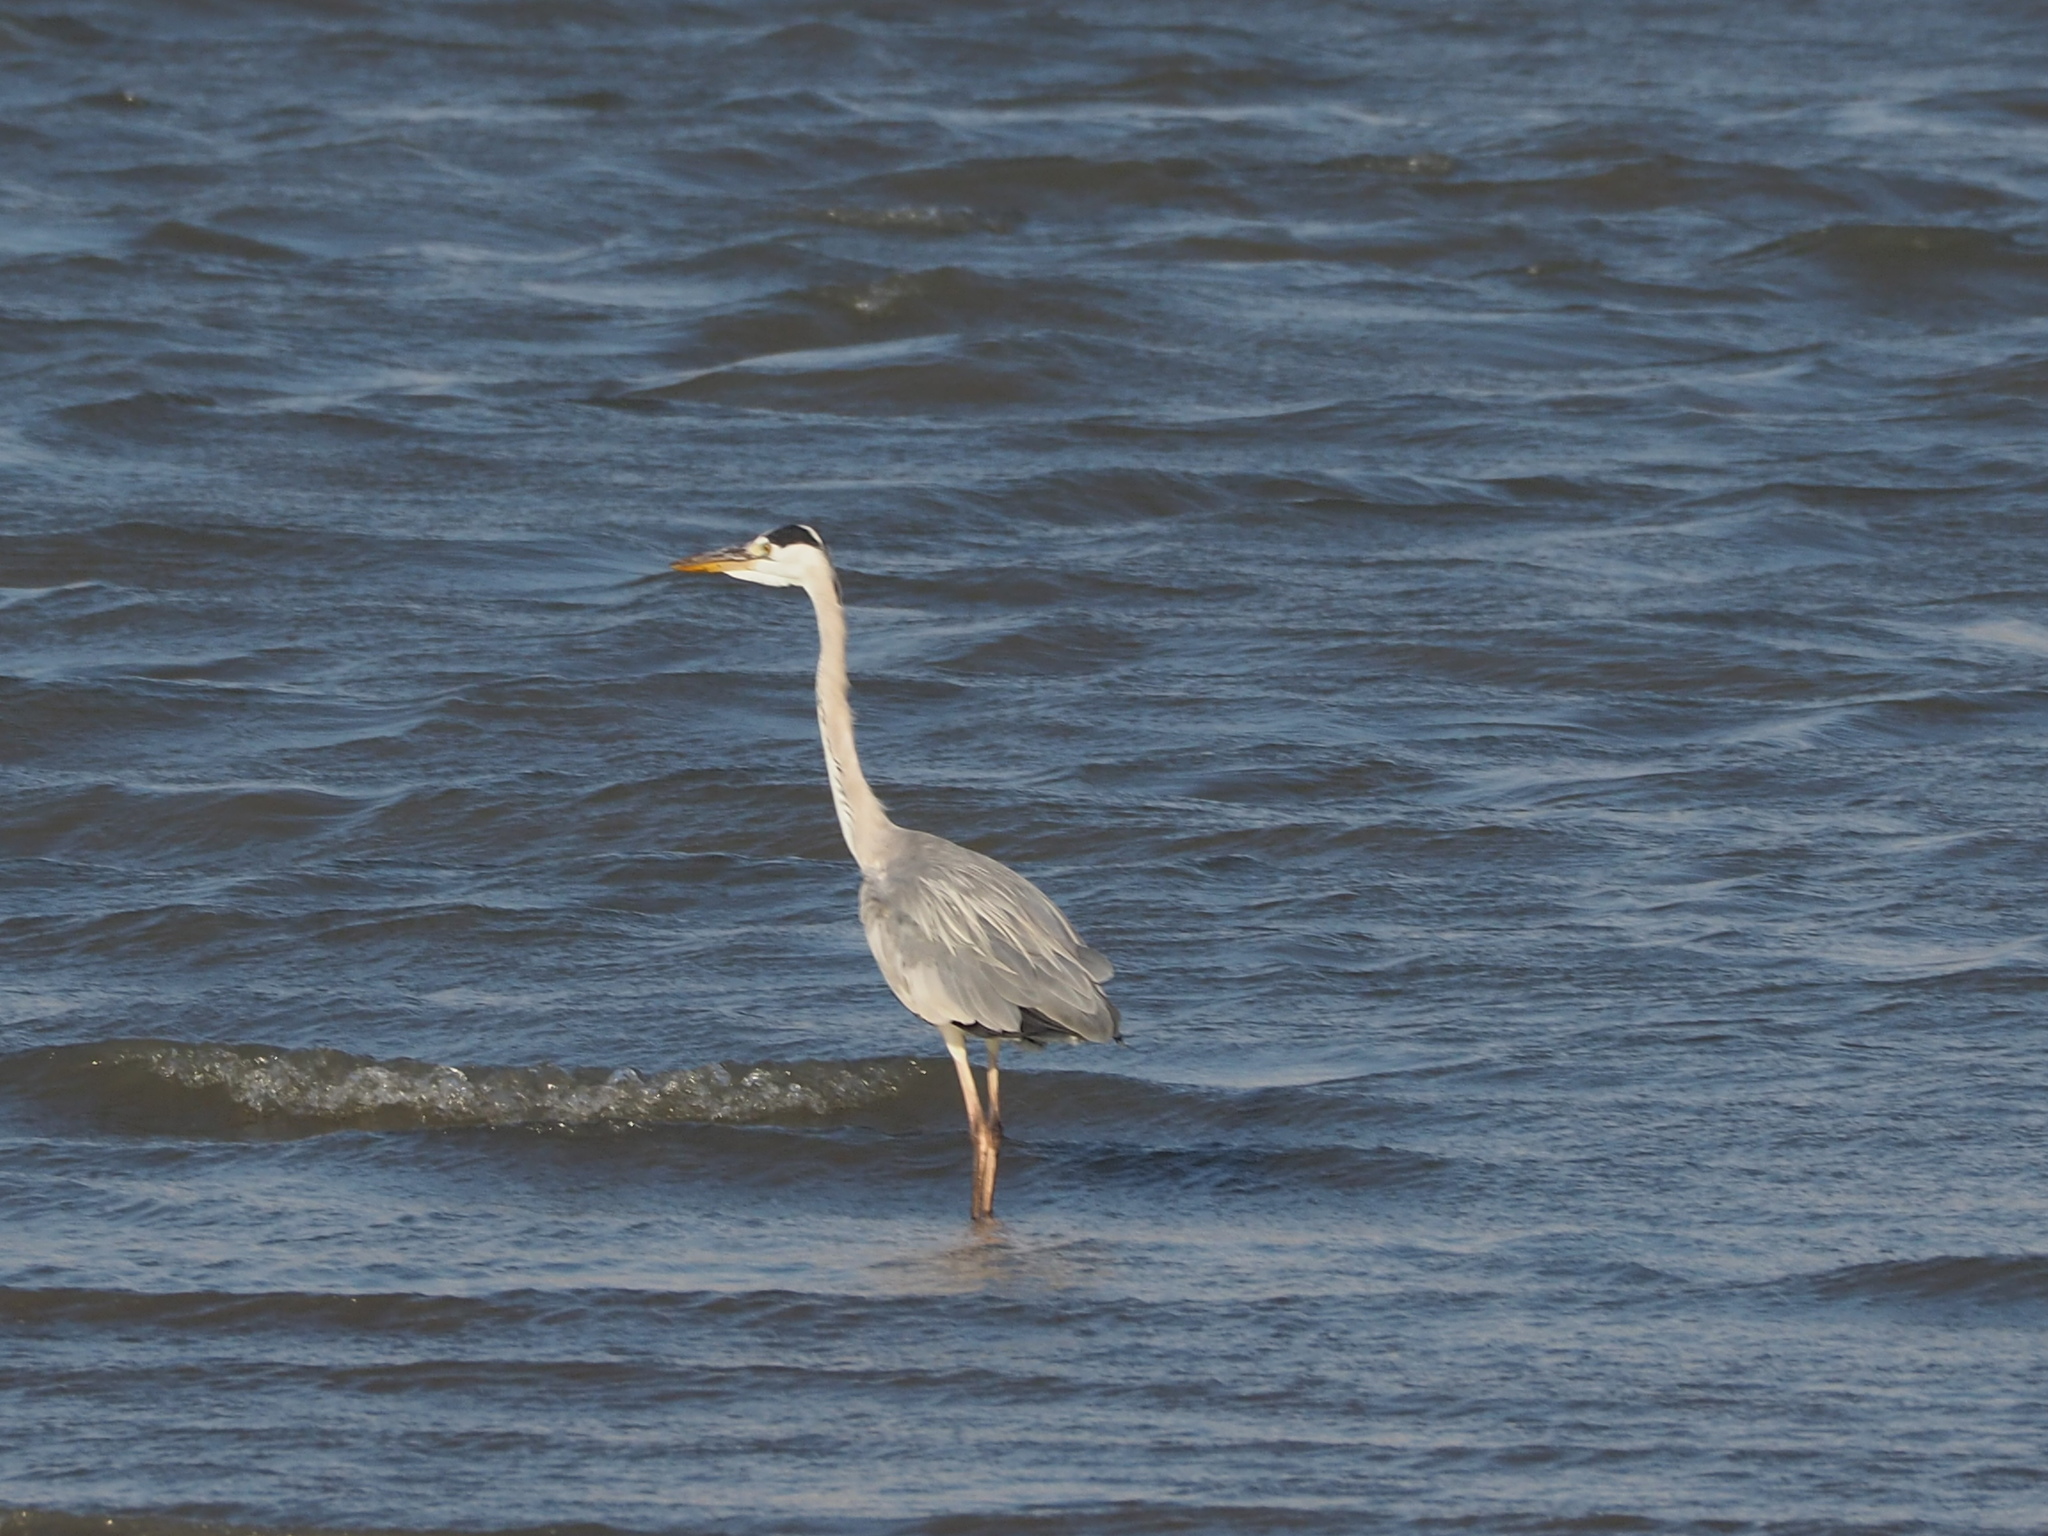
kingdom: Animalia
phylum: Chordata
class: Aves
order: Pelecaniformes
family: Ardeidae
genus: Ardea
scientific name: Ardea cinerea
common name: Grey heron
